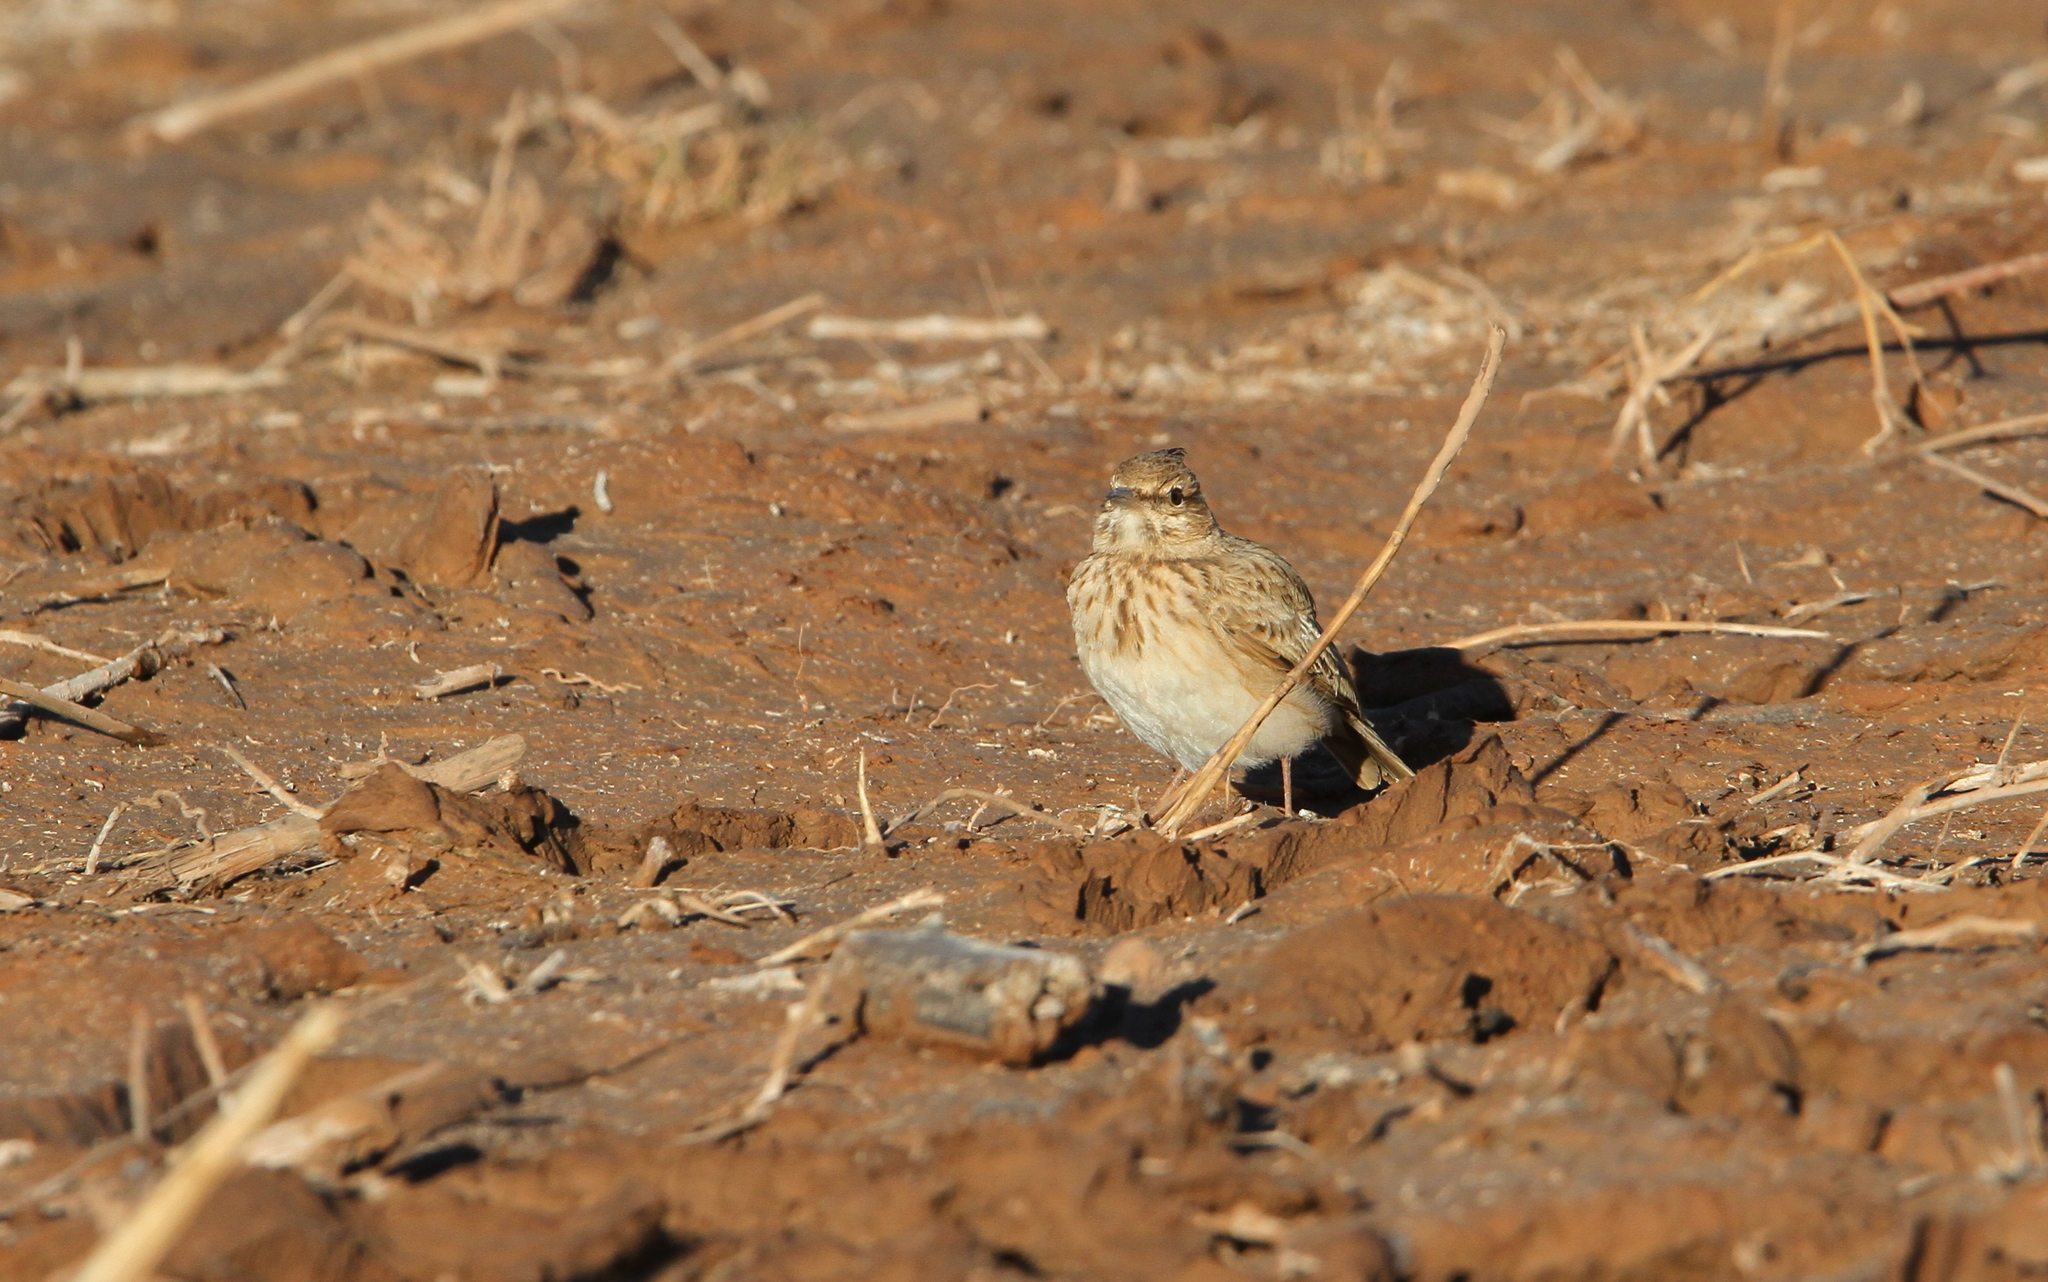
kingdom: Animalia
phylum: Chordata
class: Aves
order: Passeriformes
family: Alaudidae
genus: Galerida
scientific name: Galerida cristata
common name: Crested lark
